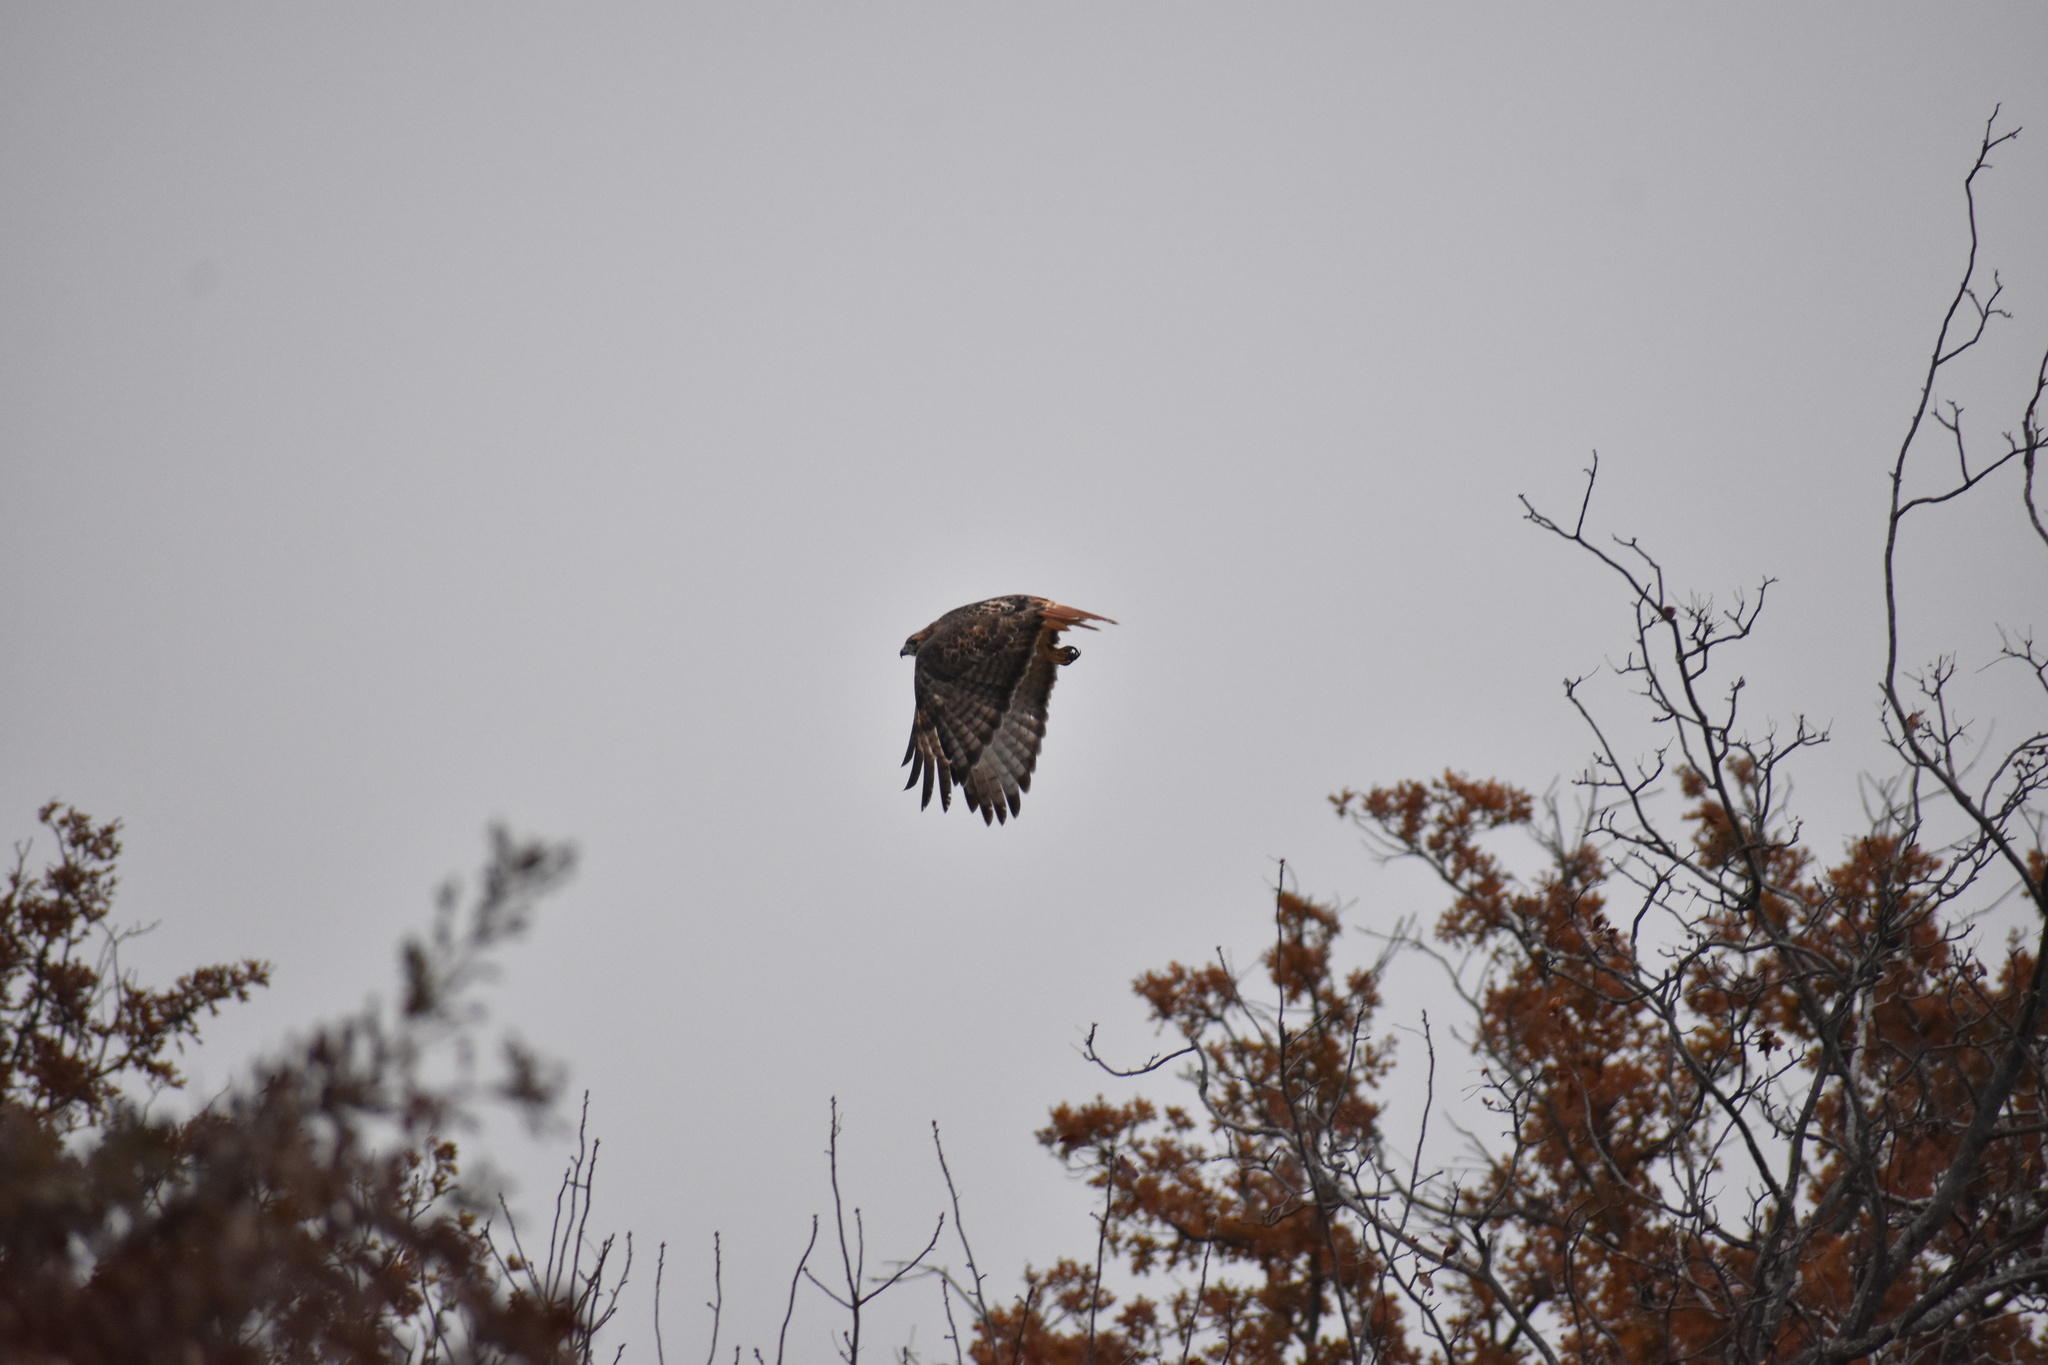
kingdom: Animalia
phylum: Chordata
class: Aves
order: Accipitriformes
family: Accipitridae
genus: Buteo
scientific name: Buteo jamaicensis
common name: Red-tailed hawk
